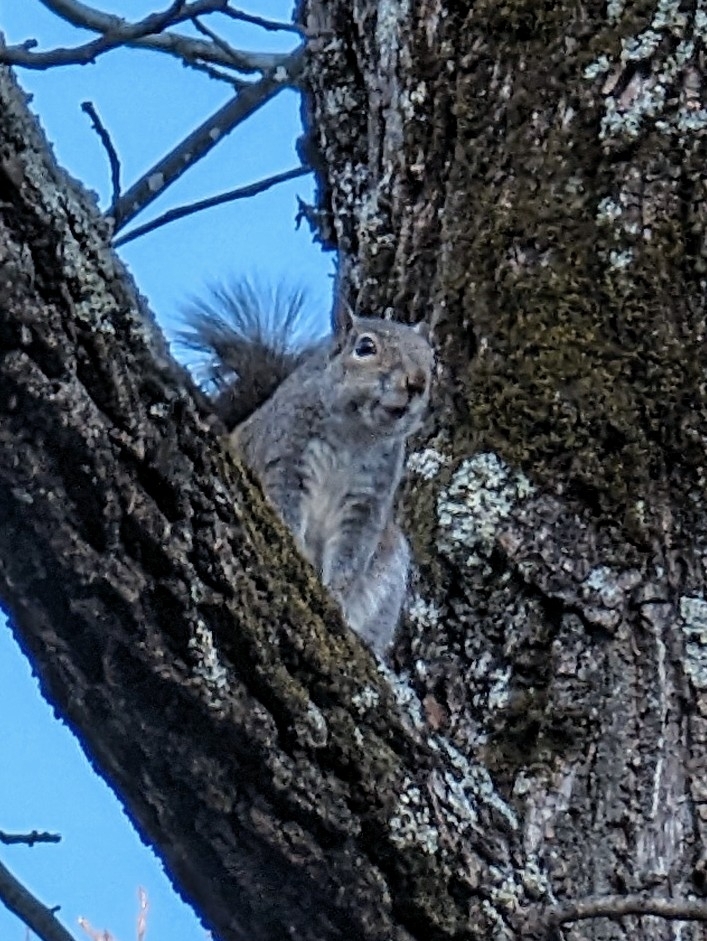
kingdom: Animalia
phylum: Chordata
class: Mammalia
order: Rodentia
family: Sciuridae
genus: Sciurus
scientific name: Sciurus carolinensis
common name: Eastern gray squirrel
